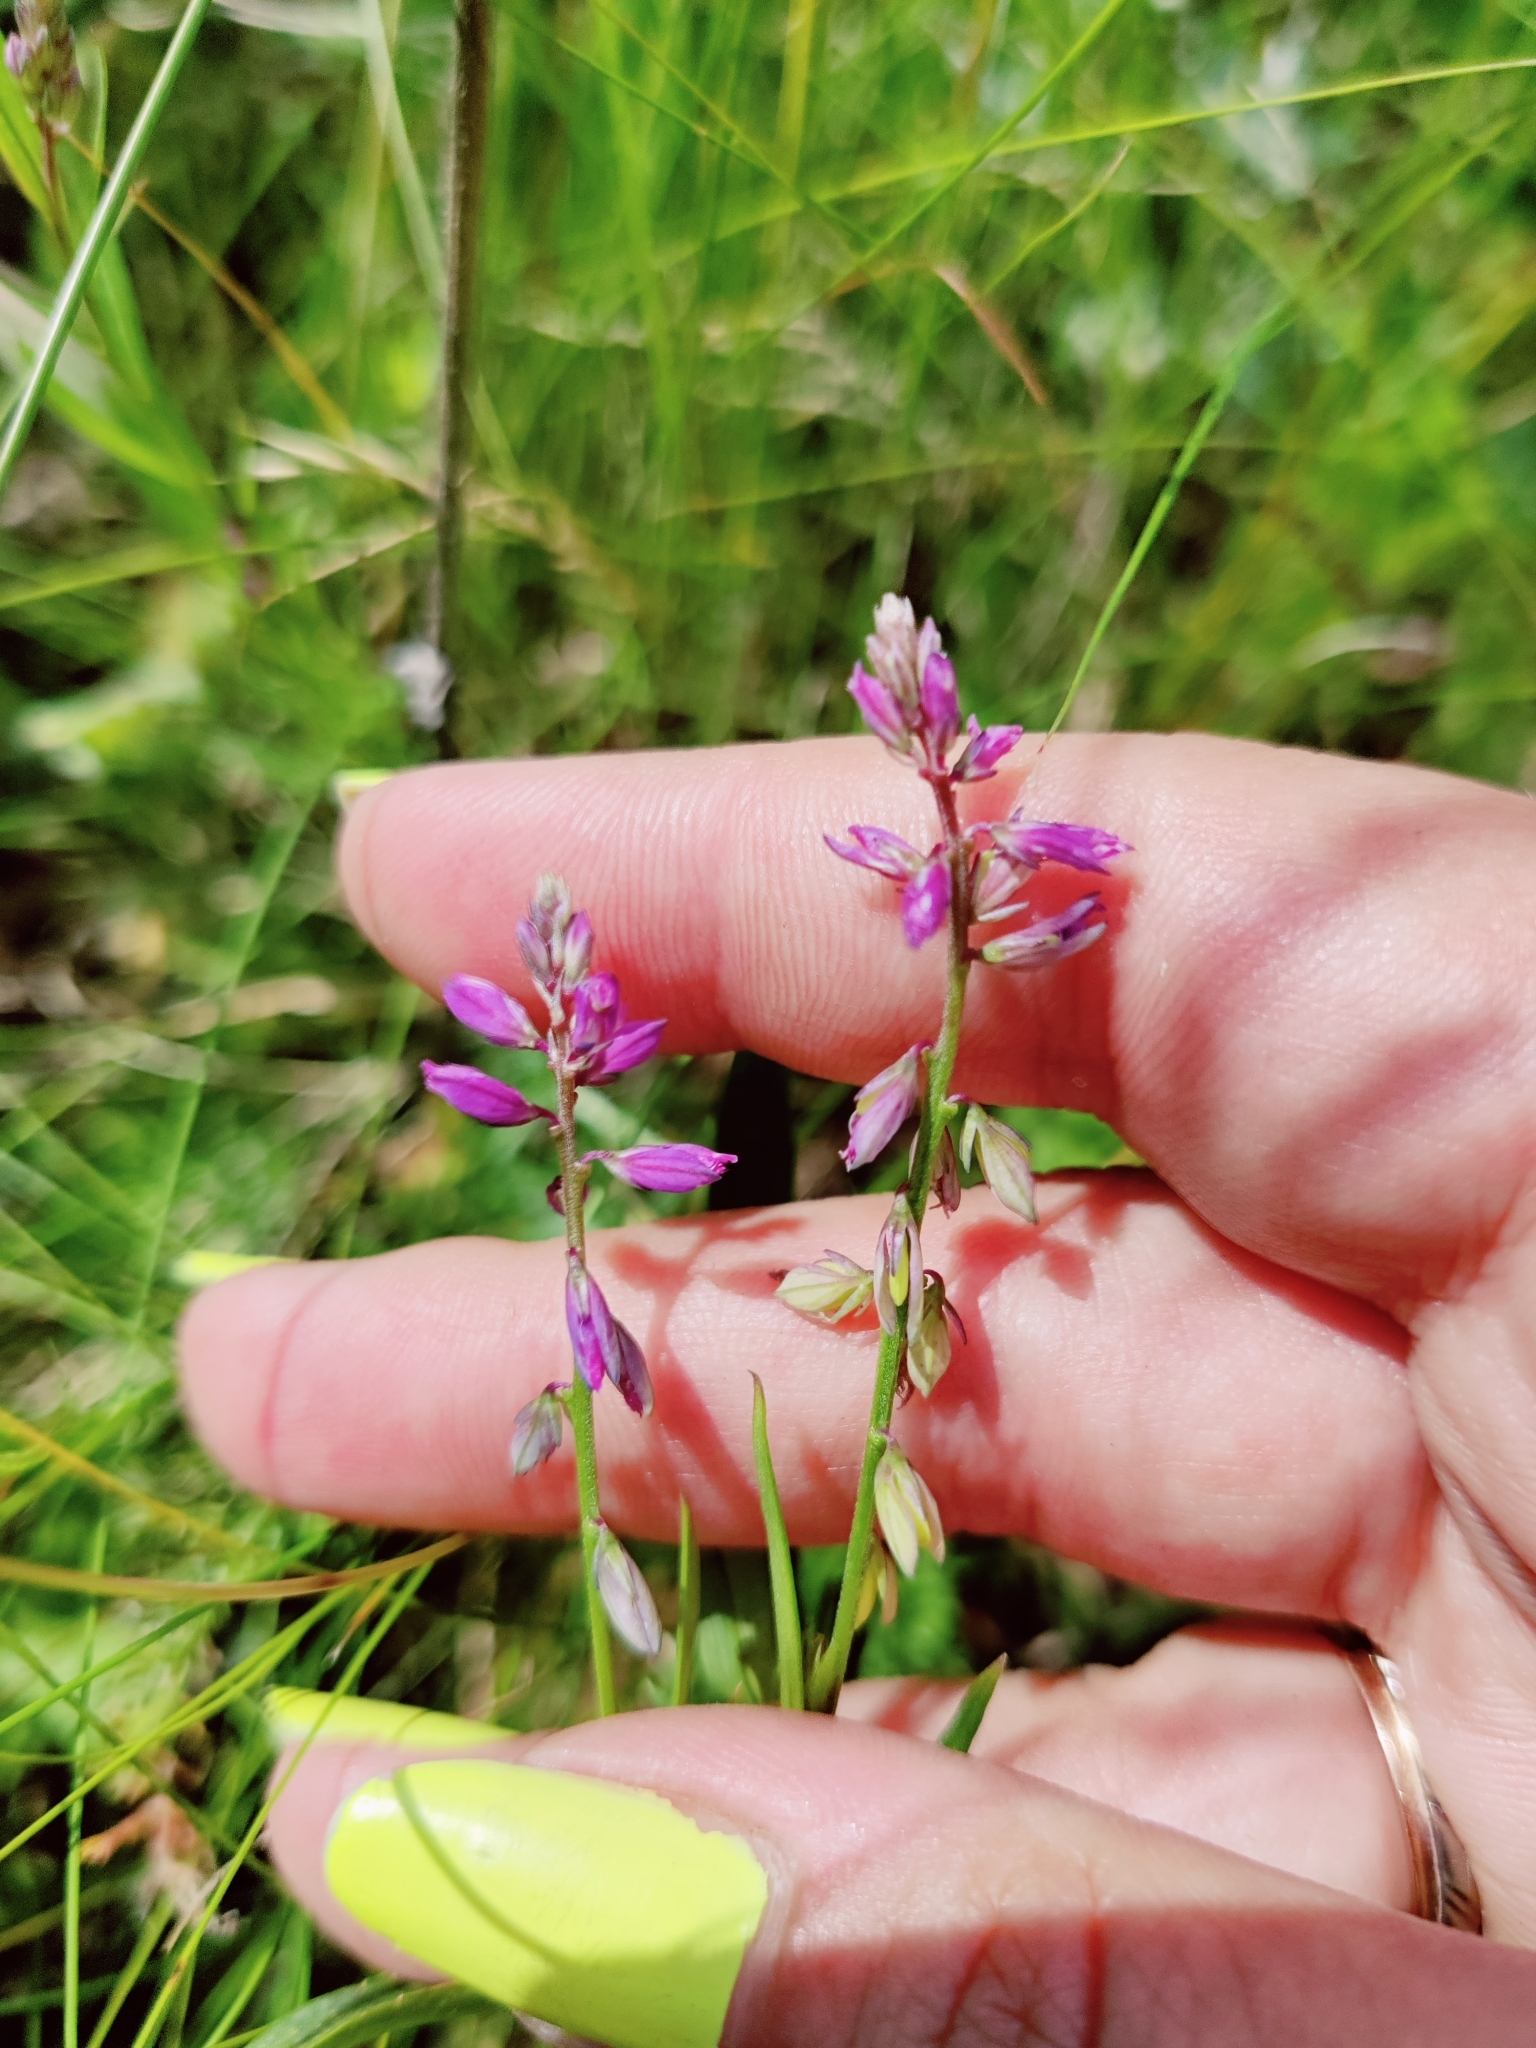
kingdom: Plantae
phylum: Tracheophyta
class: Magnoliopsida
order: Fabales
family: Polygalaceae
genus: Polygala
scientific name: Polygala comosa
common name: Tufted milkwort
